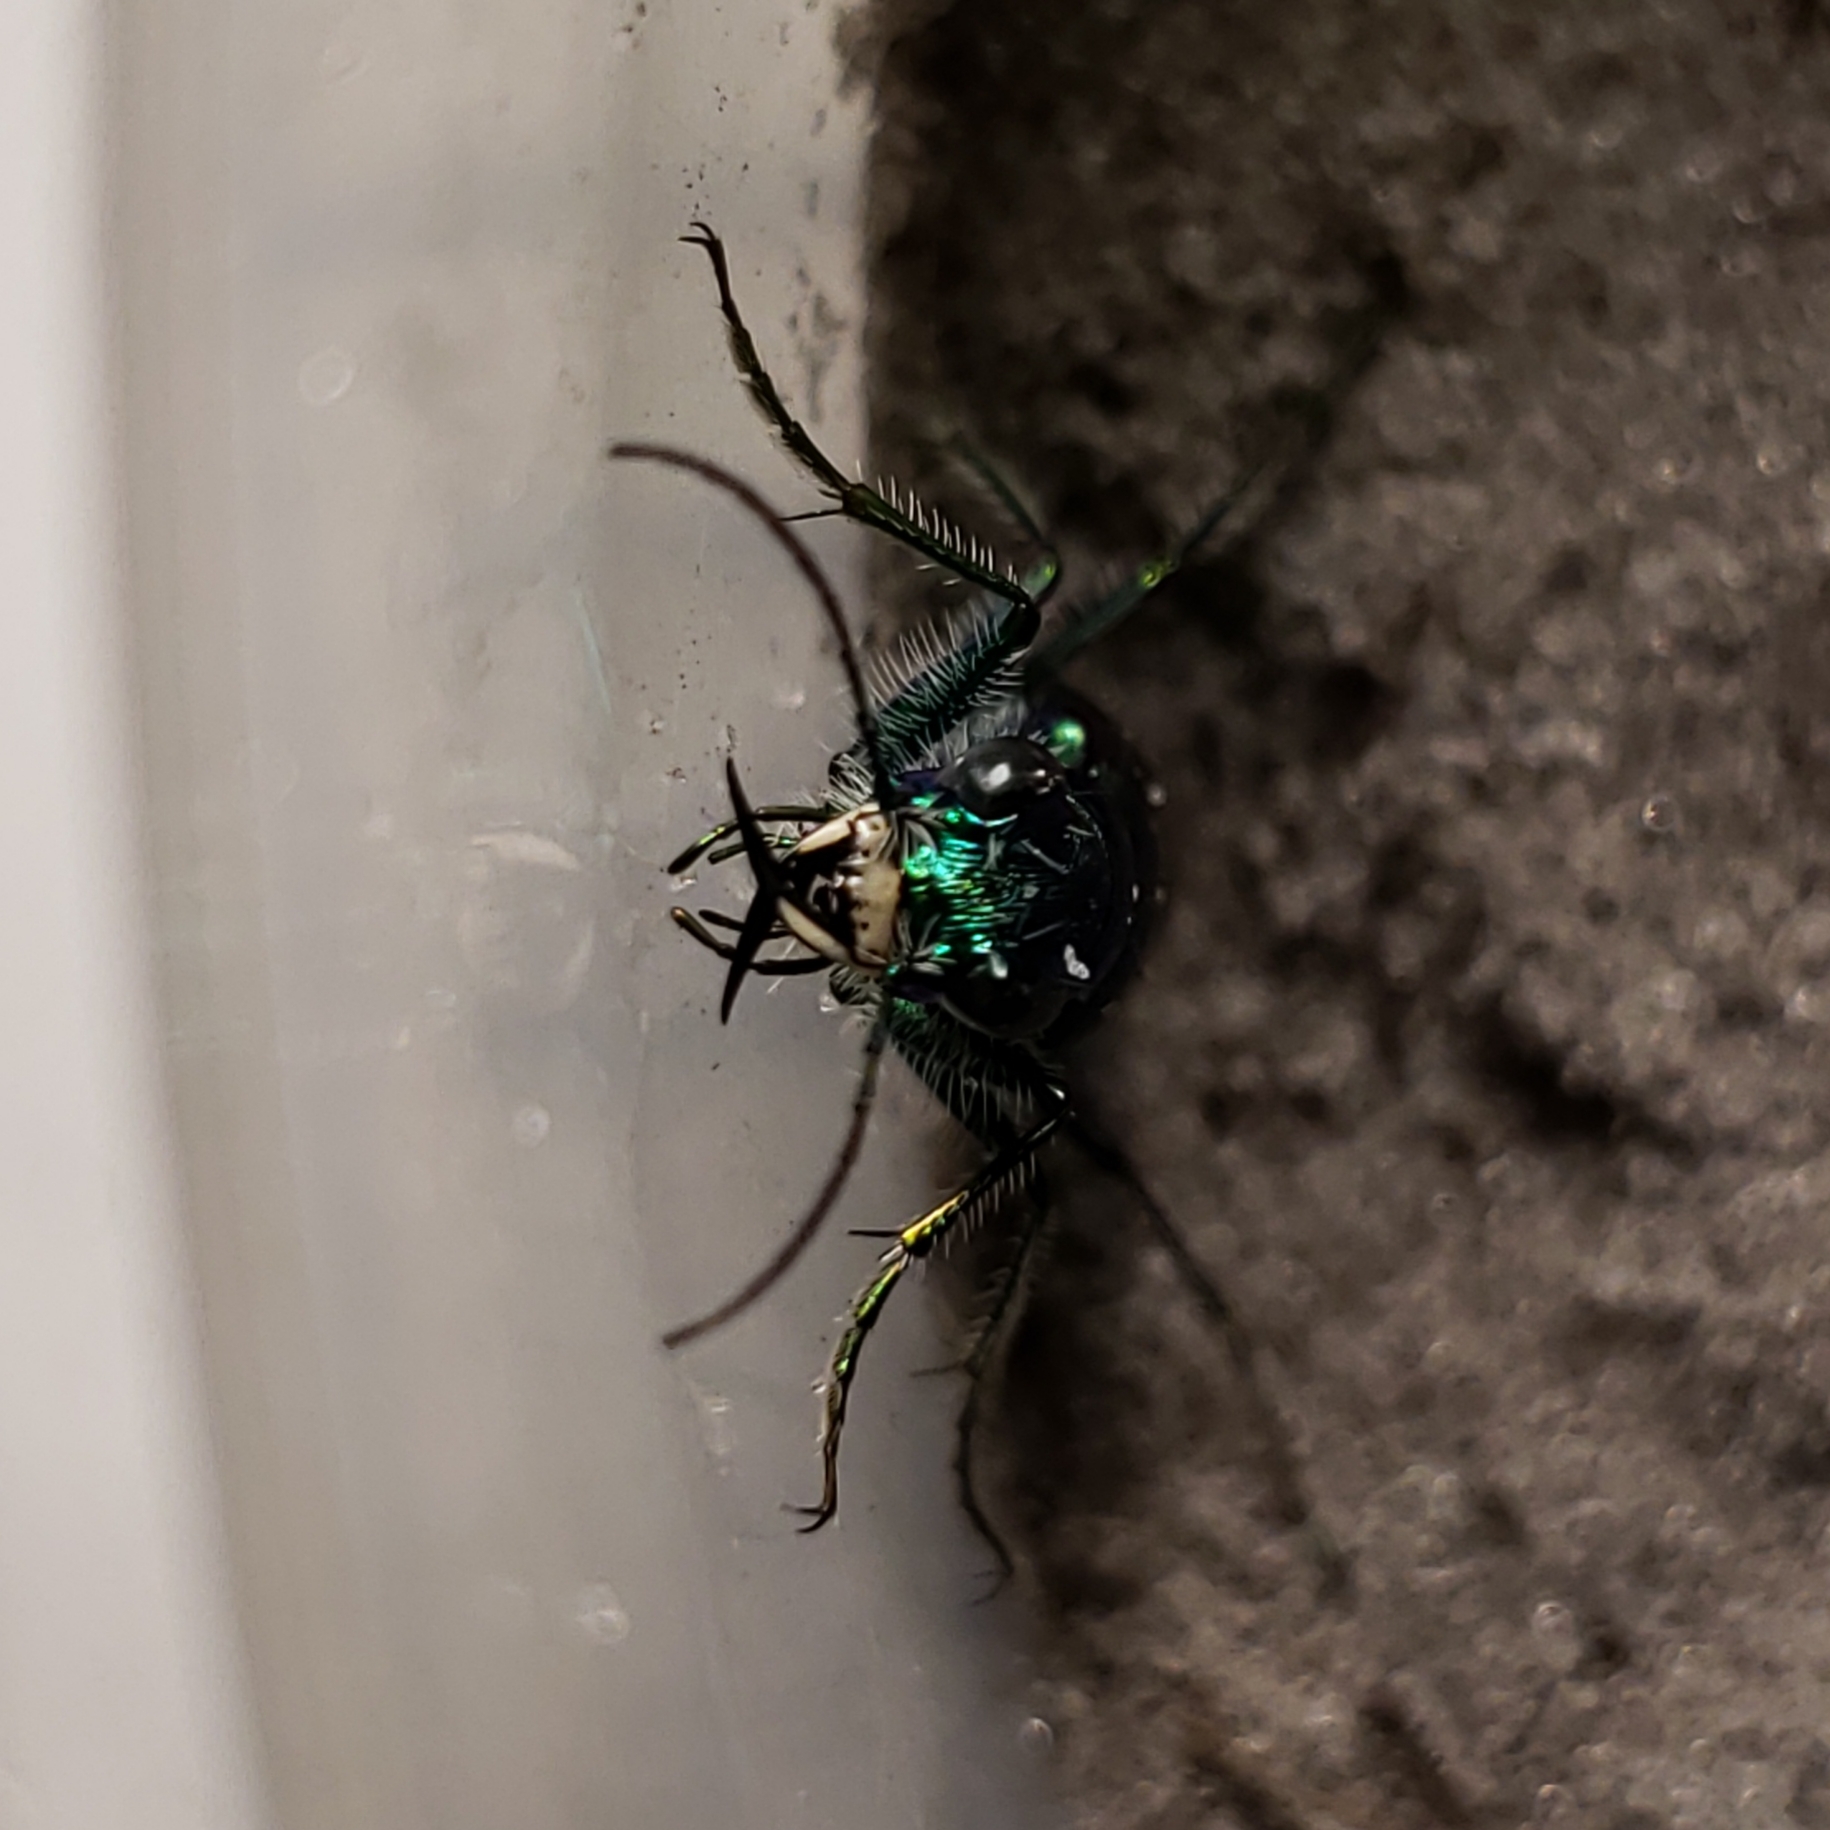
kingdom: Animalia
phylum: Arthropoda
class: Insecta
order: Coleoptera
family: Carabidae
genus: Cicindela
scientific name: Cicindela scutellaris
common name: Festive tiger beetle
